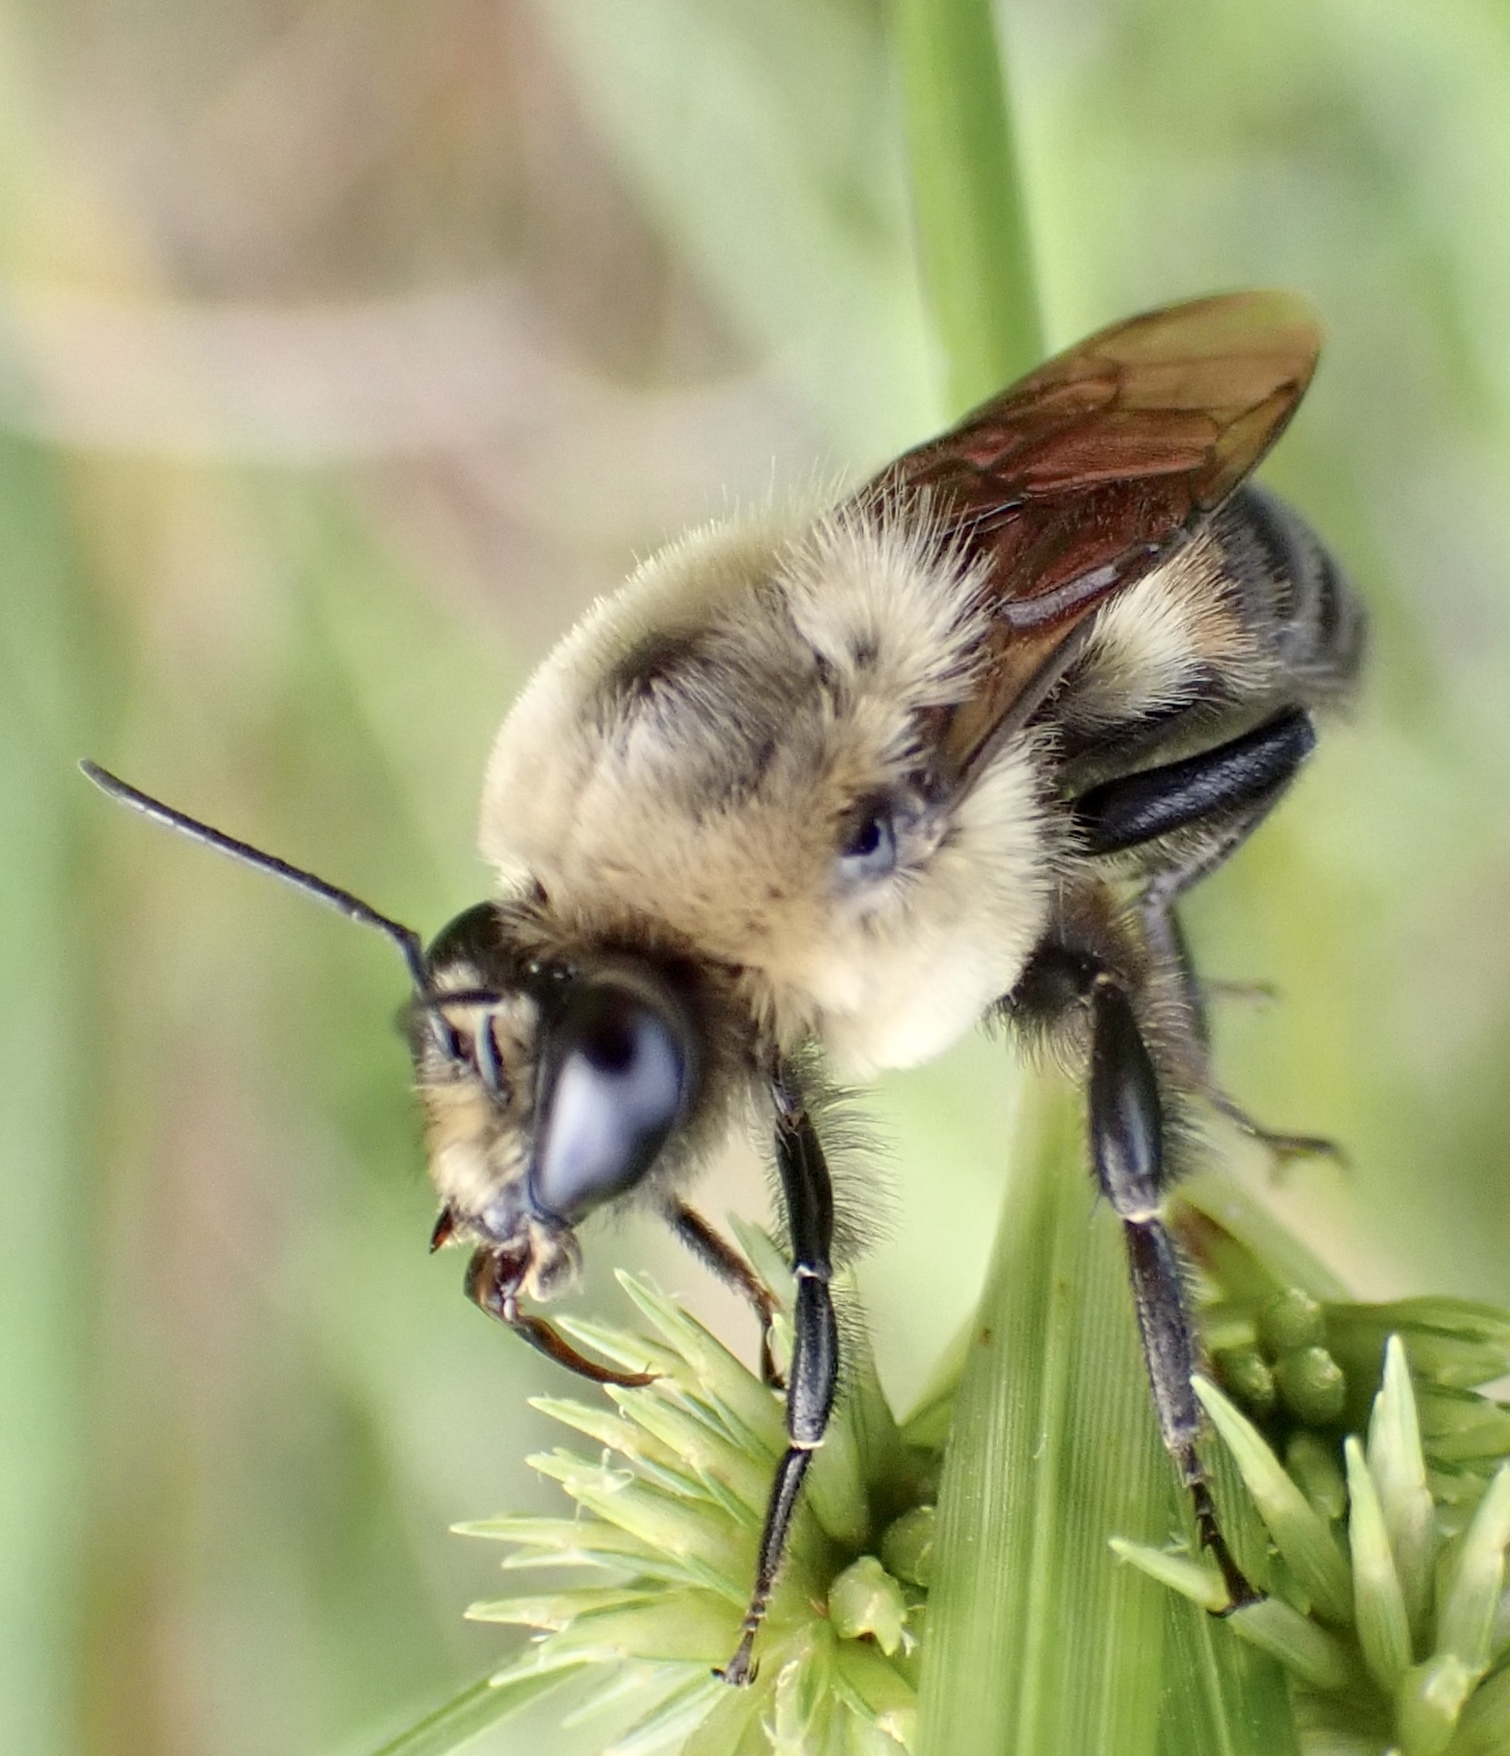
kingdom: Animalia
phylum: Arthropoda
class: Insecta
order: Hymenoptera
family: Apidae
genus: Bombus
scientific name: Bombus griseocollis
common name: Brown-belted bumble bee
